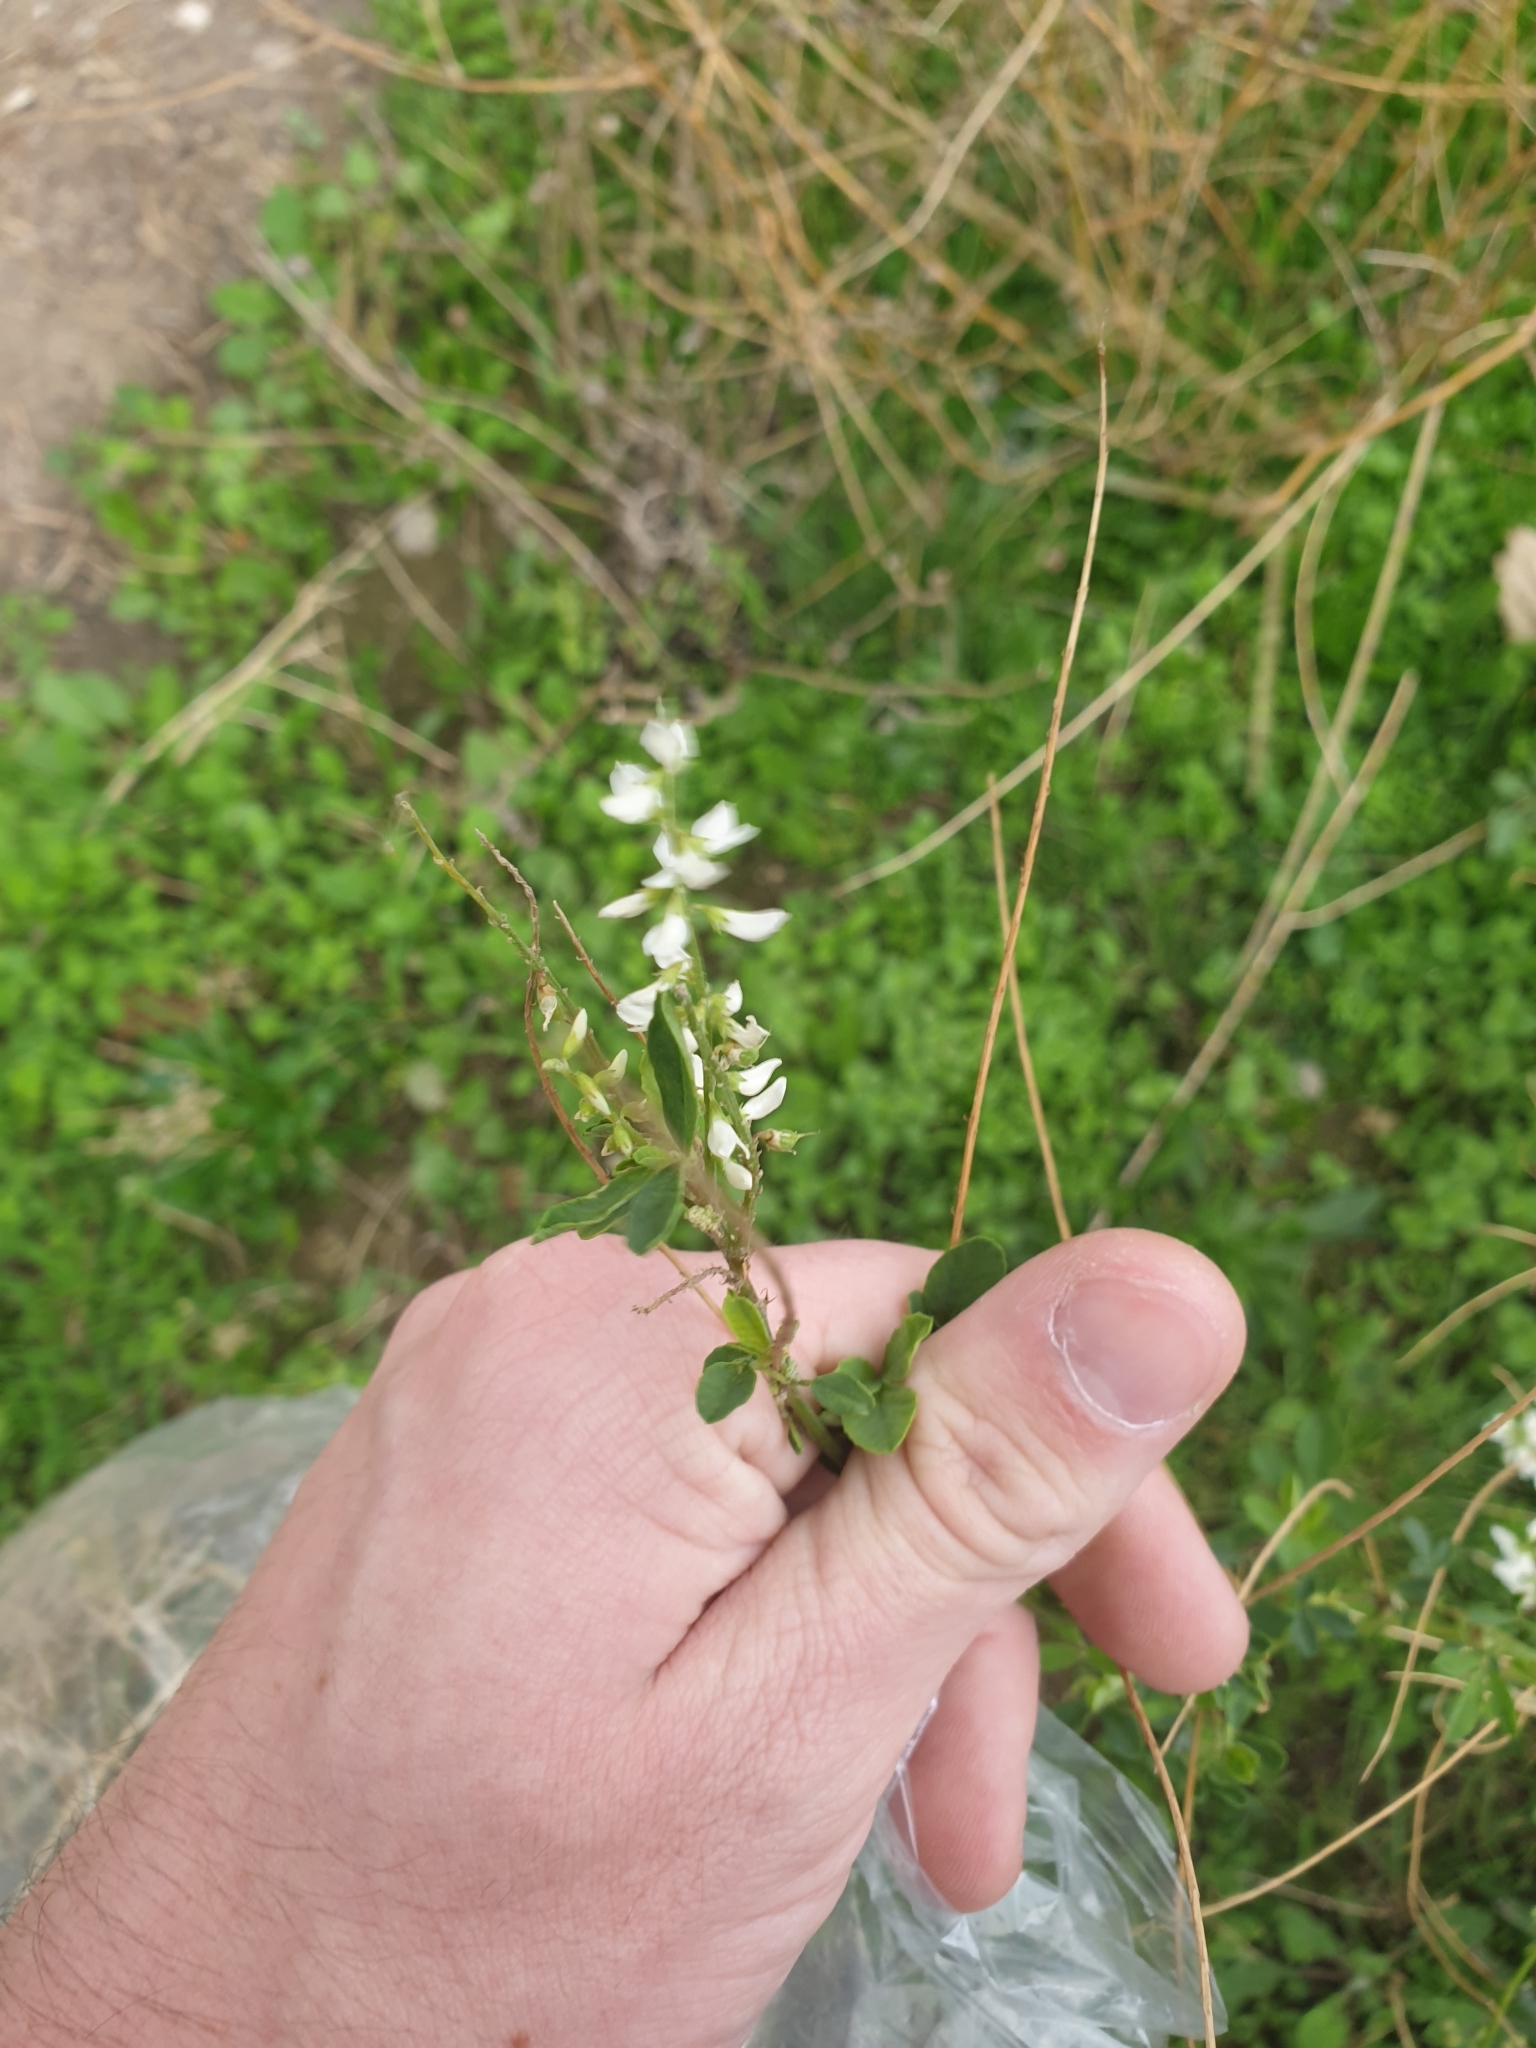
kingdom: Plantae
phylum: Tracheophyta
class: Magnoliopsida
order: Fabales
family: Fabaceae
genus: Melilotus
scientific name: Melilotus albus
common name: White melilot
